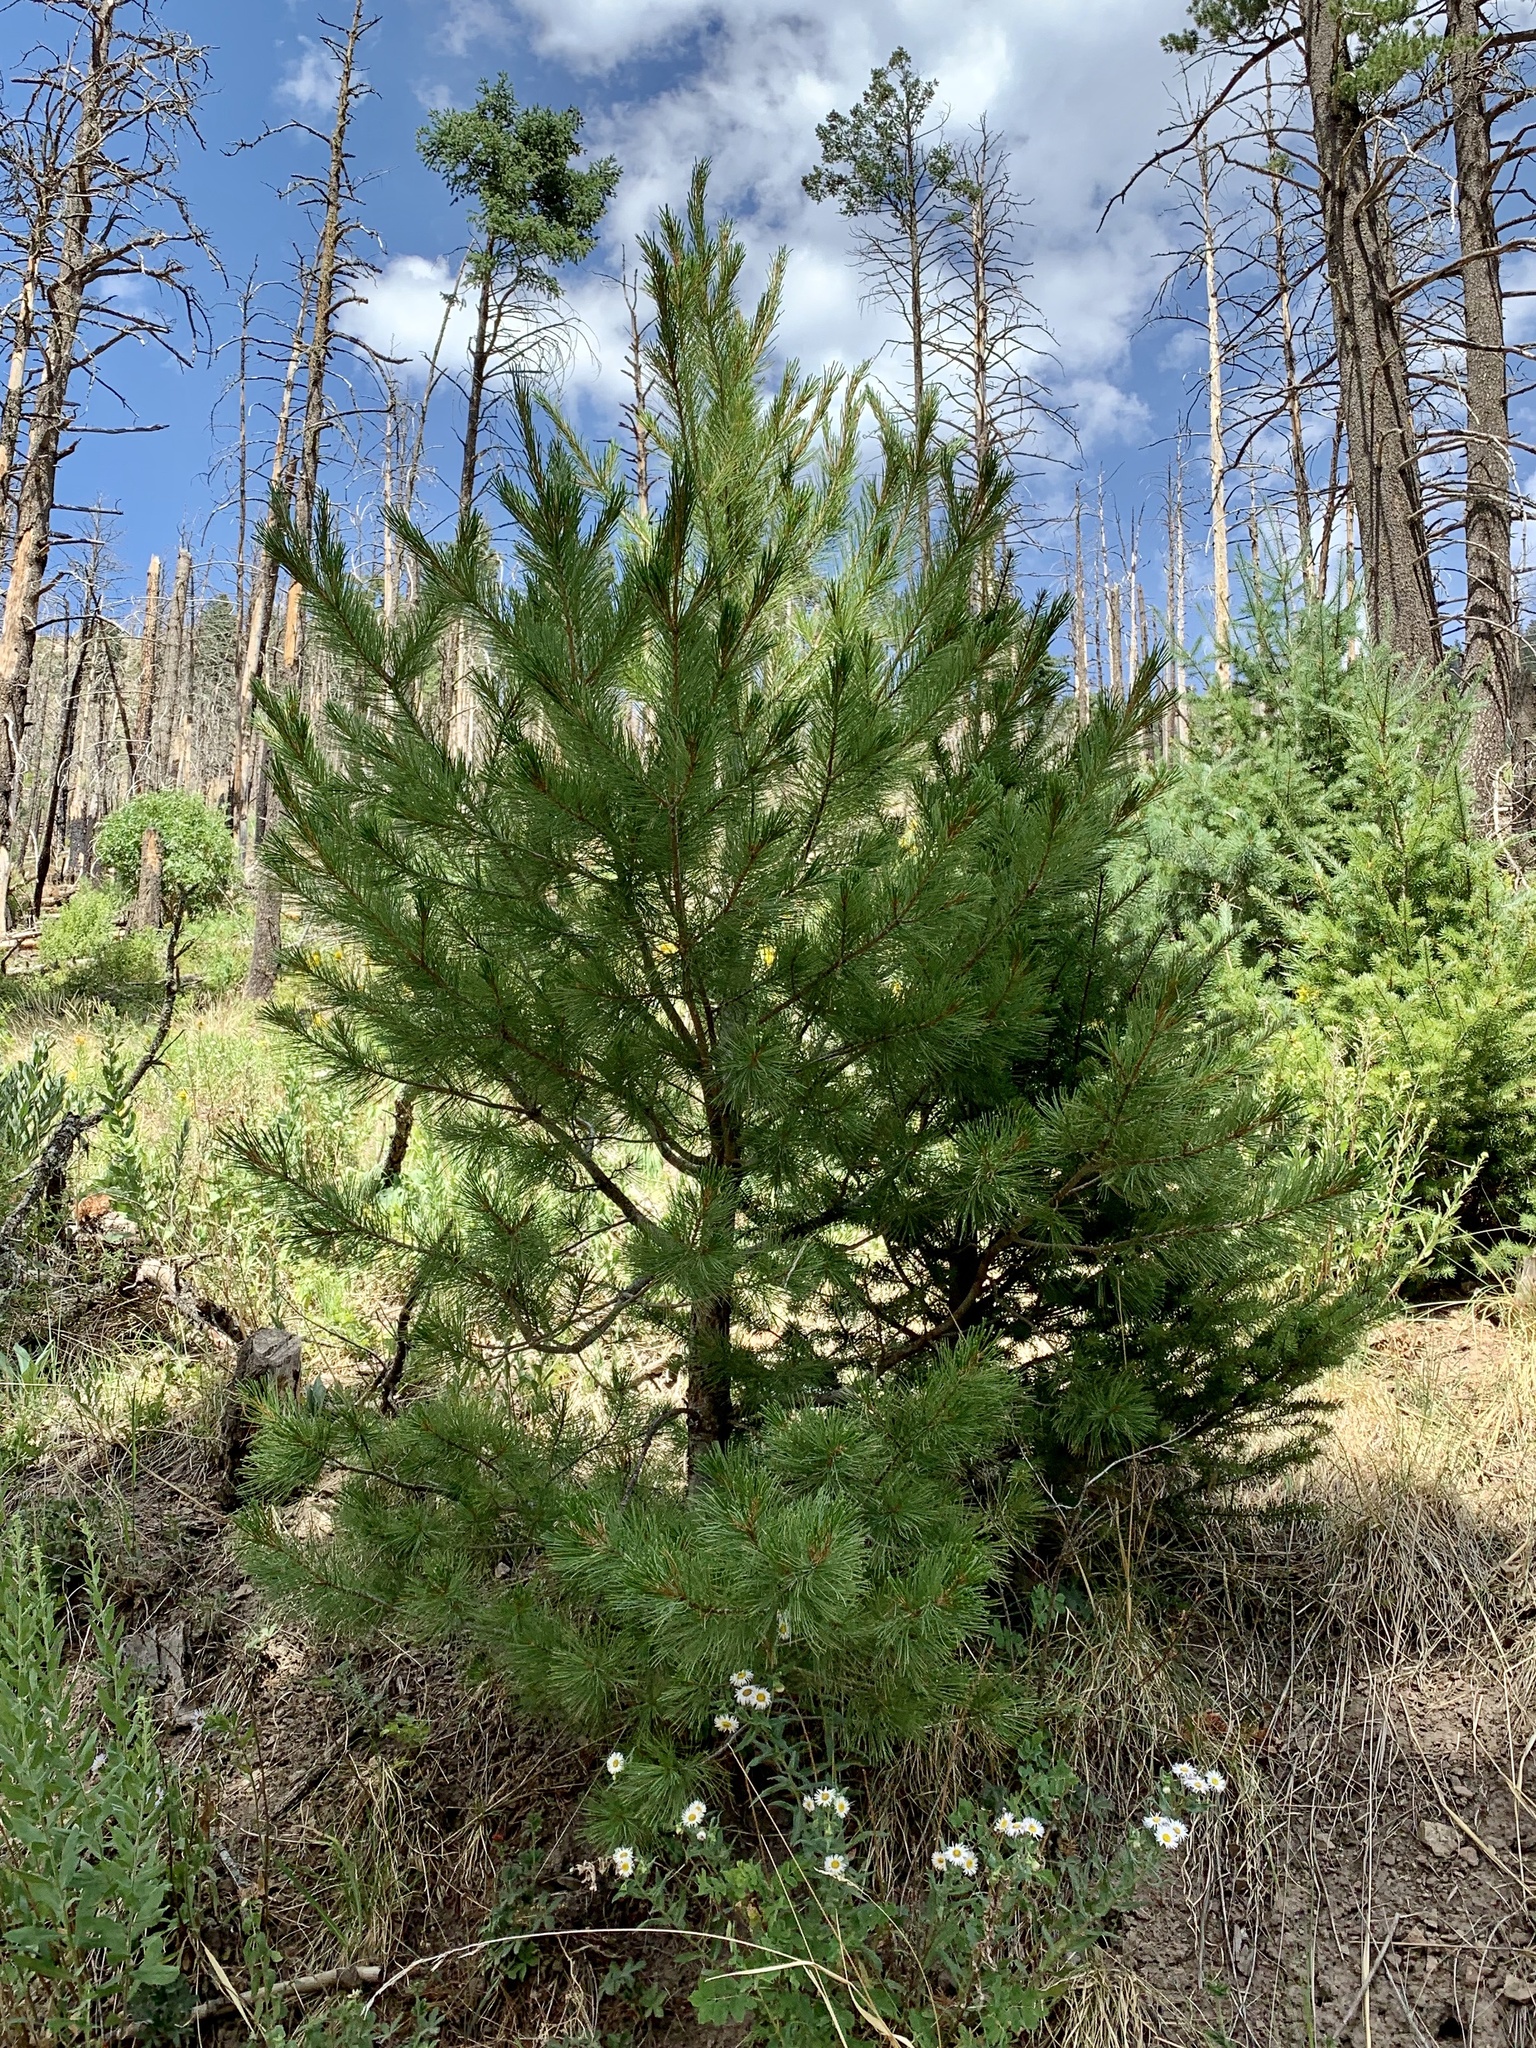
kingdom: Plantae
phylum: Tracheophyta
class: Pinopsida
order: Pinales
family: Pinaceae
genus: Pinus
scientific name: Pinus strobiformis
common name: Southwestern white pine
